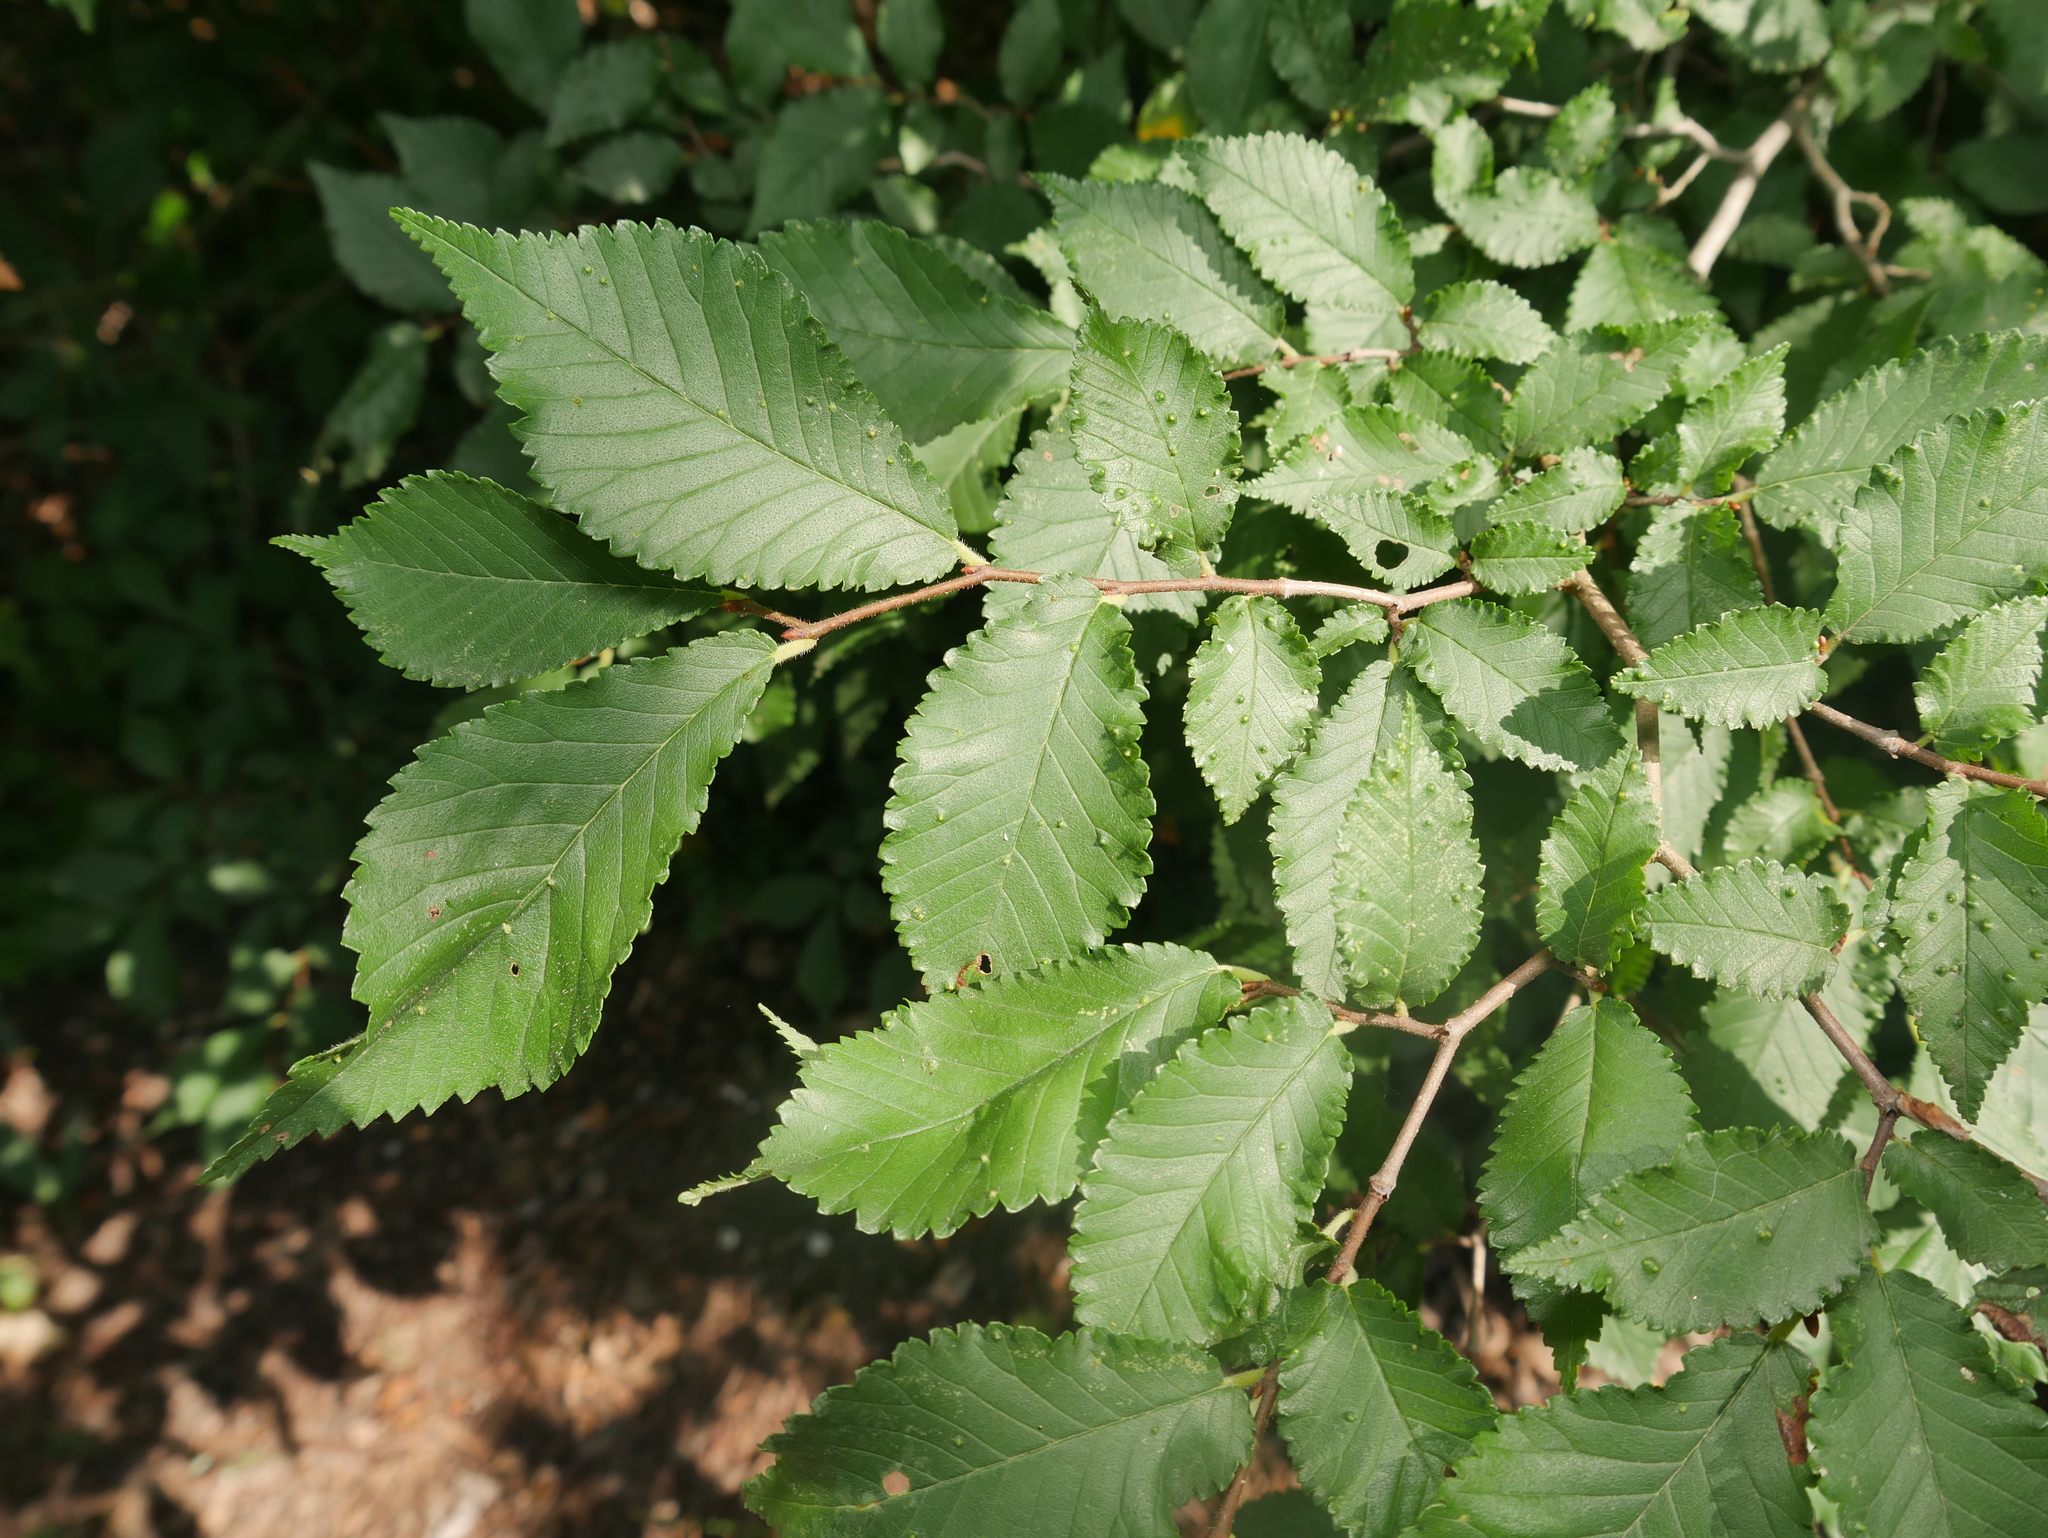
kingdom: Plantae
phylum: Tracheophyta
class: Magnoliopsida
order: Rosales
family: Ulmaceae
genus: Ulmus
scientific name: Ulmus minor
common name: Small-leaved elm
